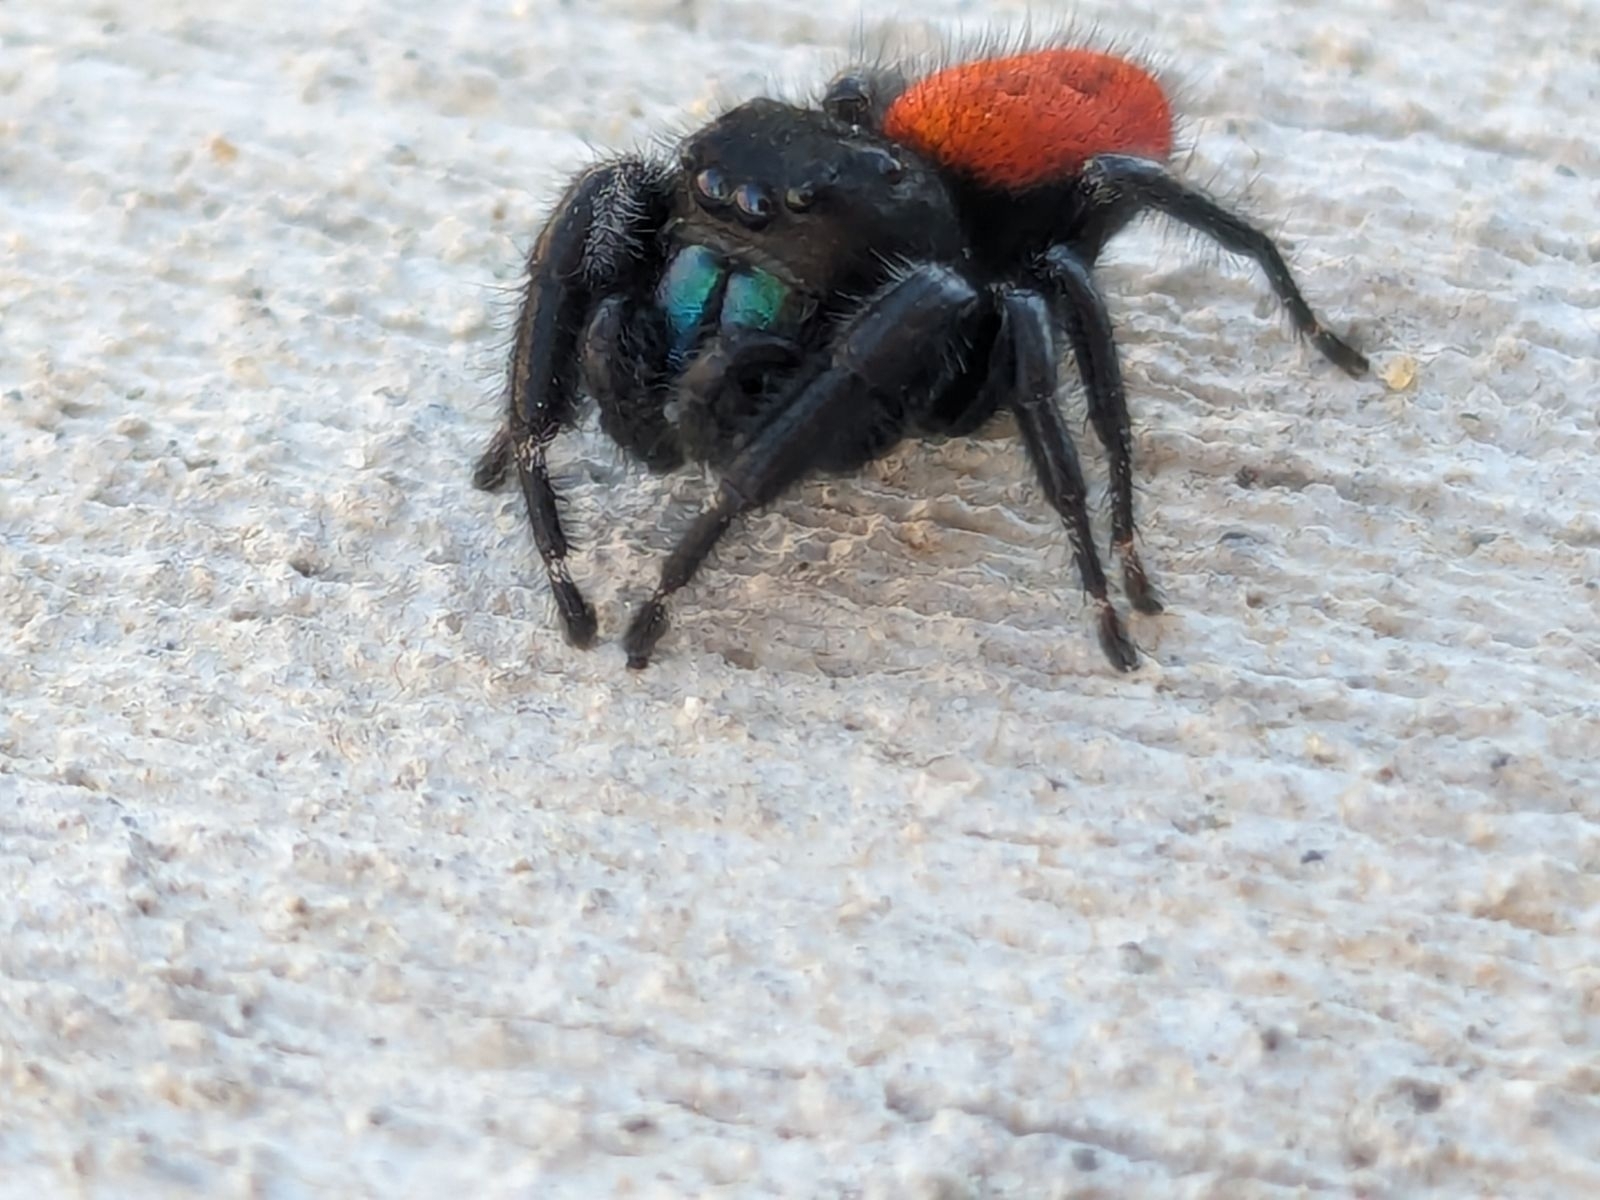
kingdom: Animalia
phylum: Arthropoda
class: Arachnida
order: Araneae
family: Salticidae
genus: Phidippus
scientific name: Phidippus johnsoni
